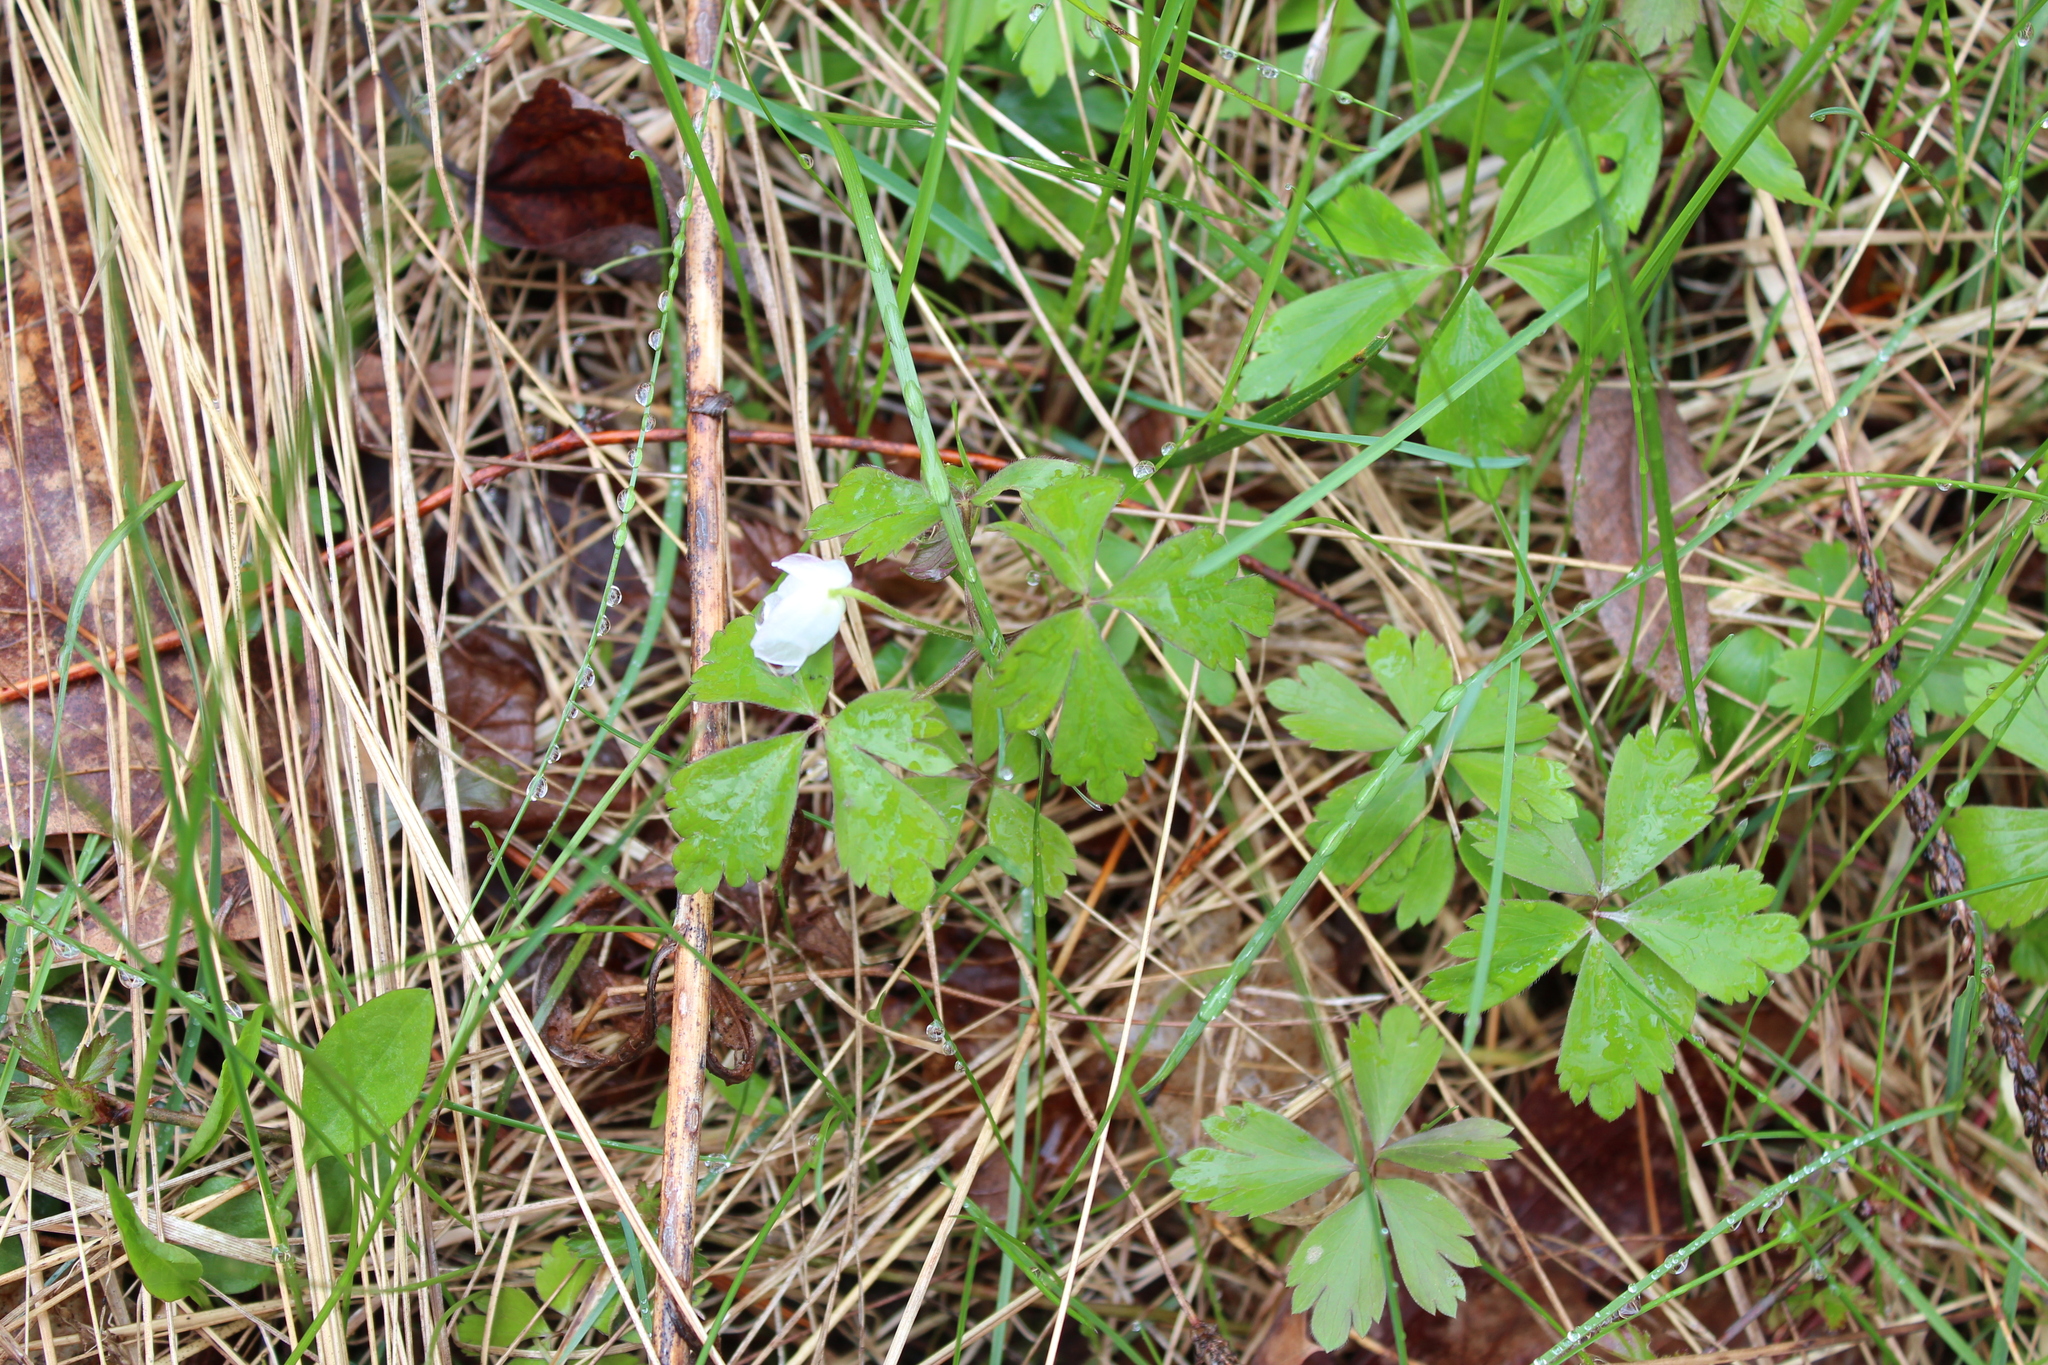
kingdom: Plantae
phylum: Tracheophyta
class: Magnoliopsida
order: Ranunculales
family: Ranunculaceae
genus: Anemone
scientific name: Anemone quinquefolia
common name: Wood anemone
